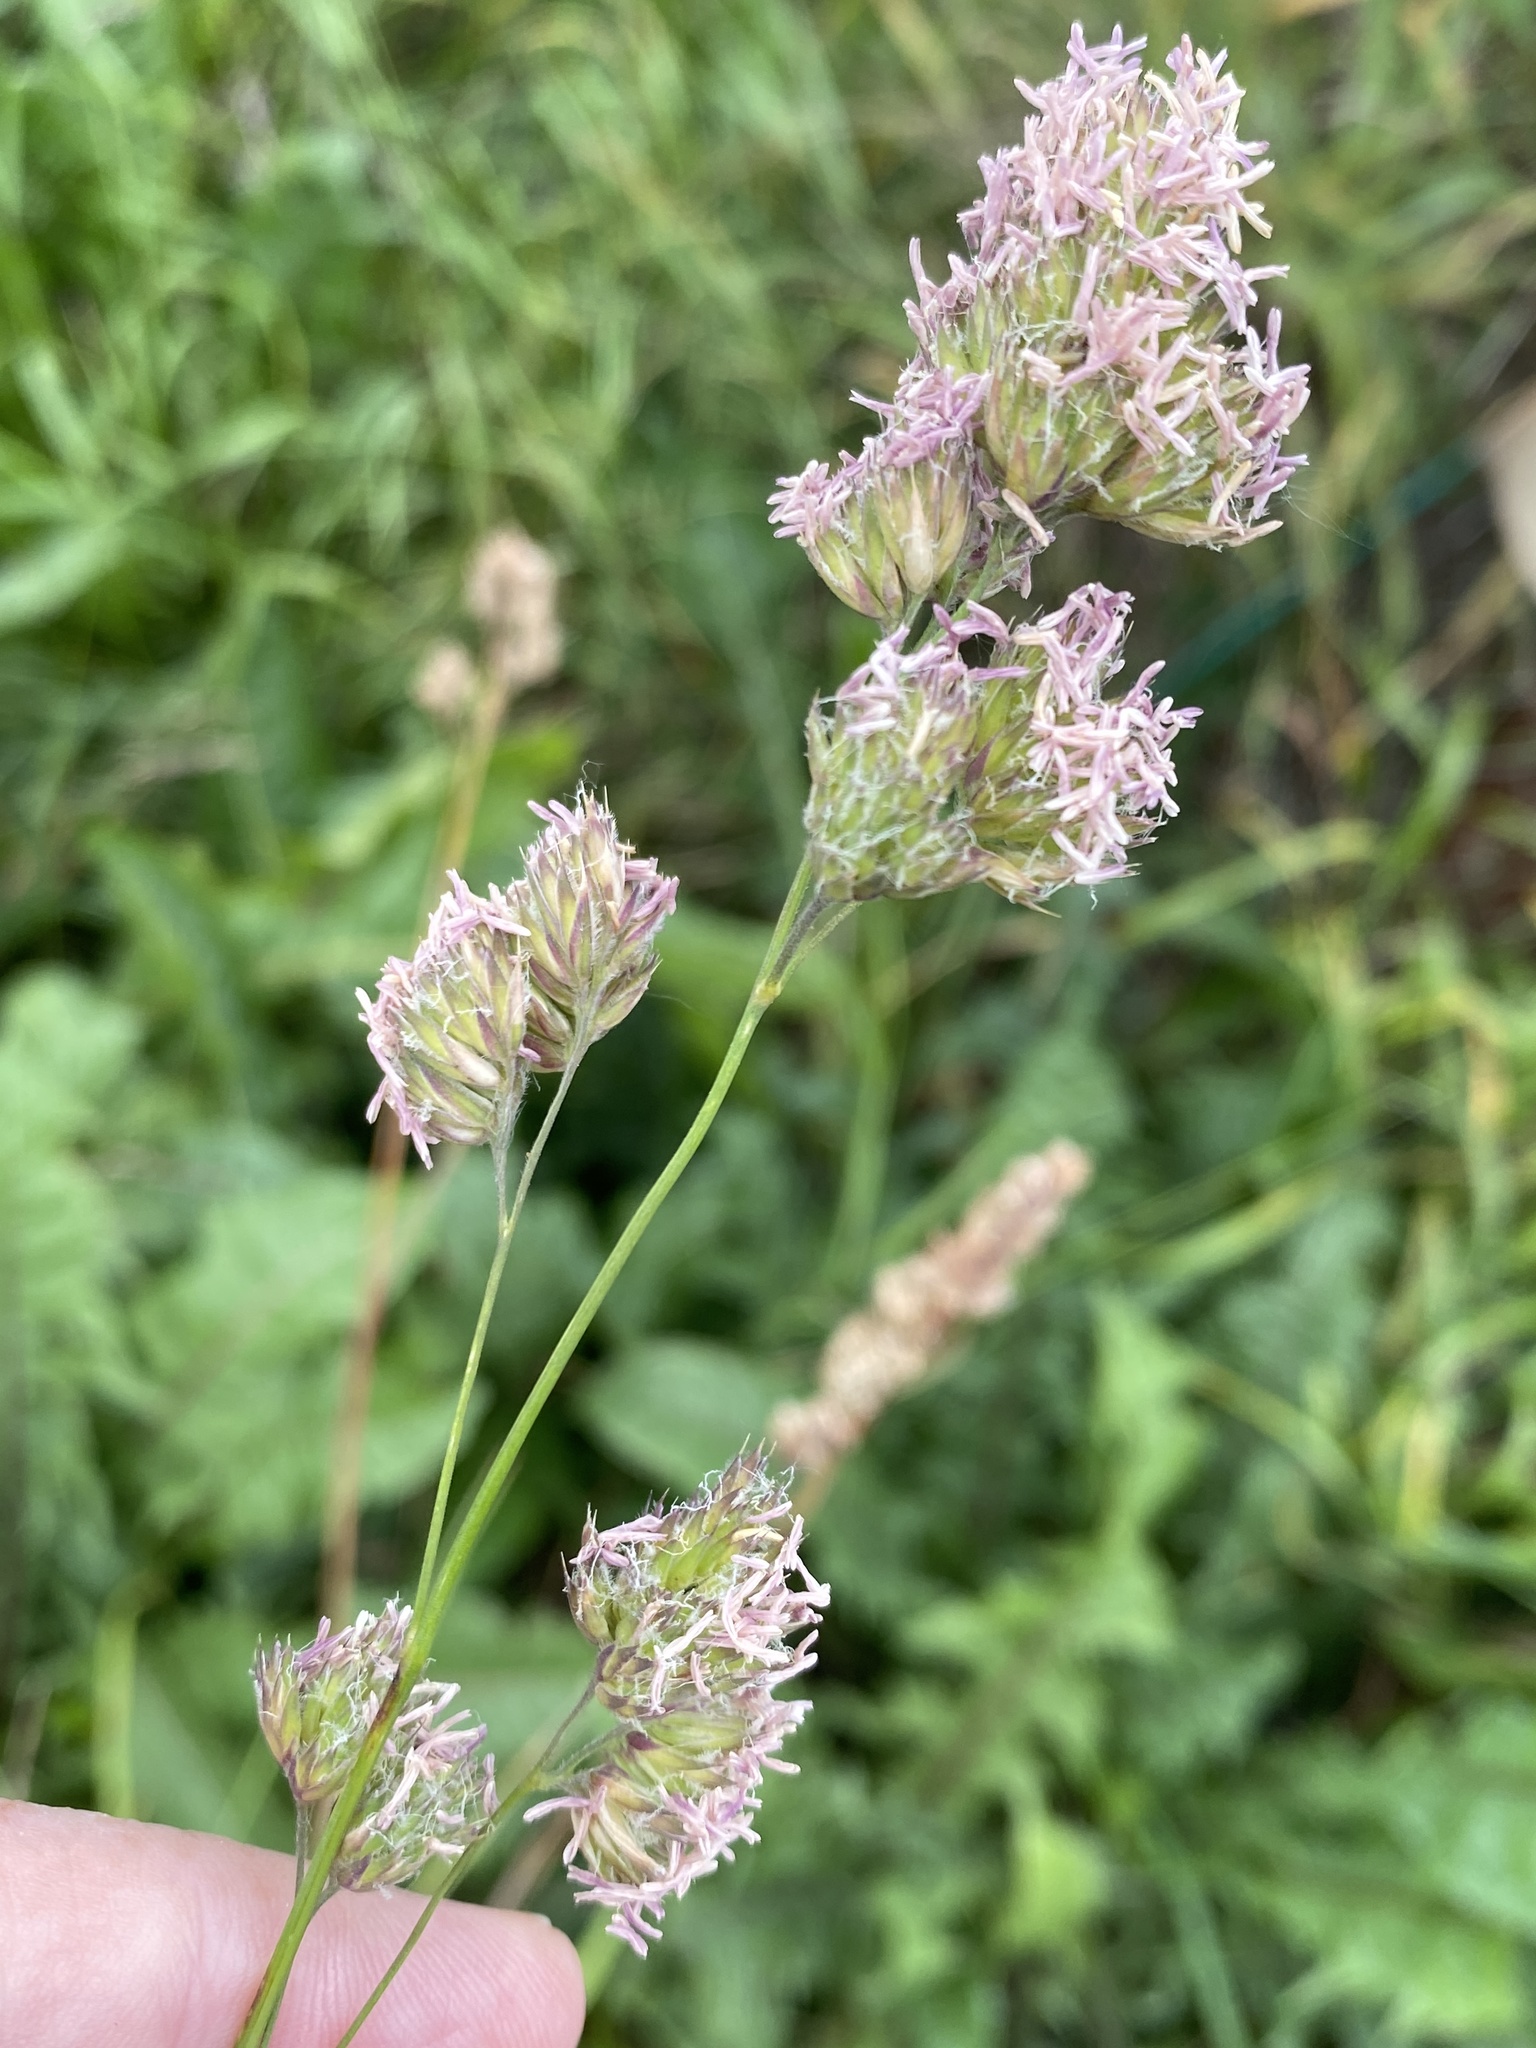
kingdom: Plantae
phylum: Tracheophyta
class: Liliopsida
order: Poales
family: Poaceae
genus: Dactylis
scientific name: Dactylis glomerata
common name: Orchardgrass
